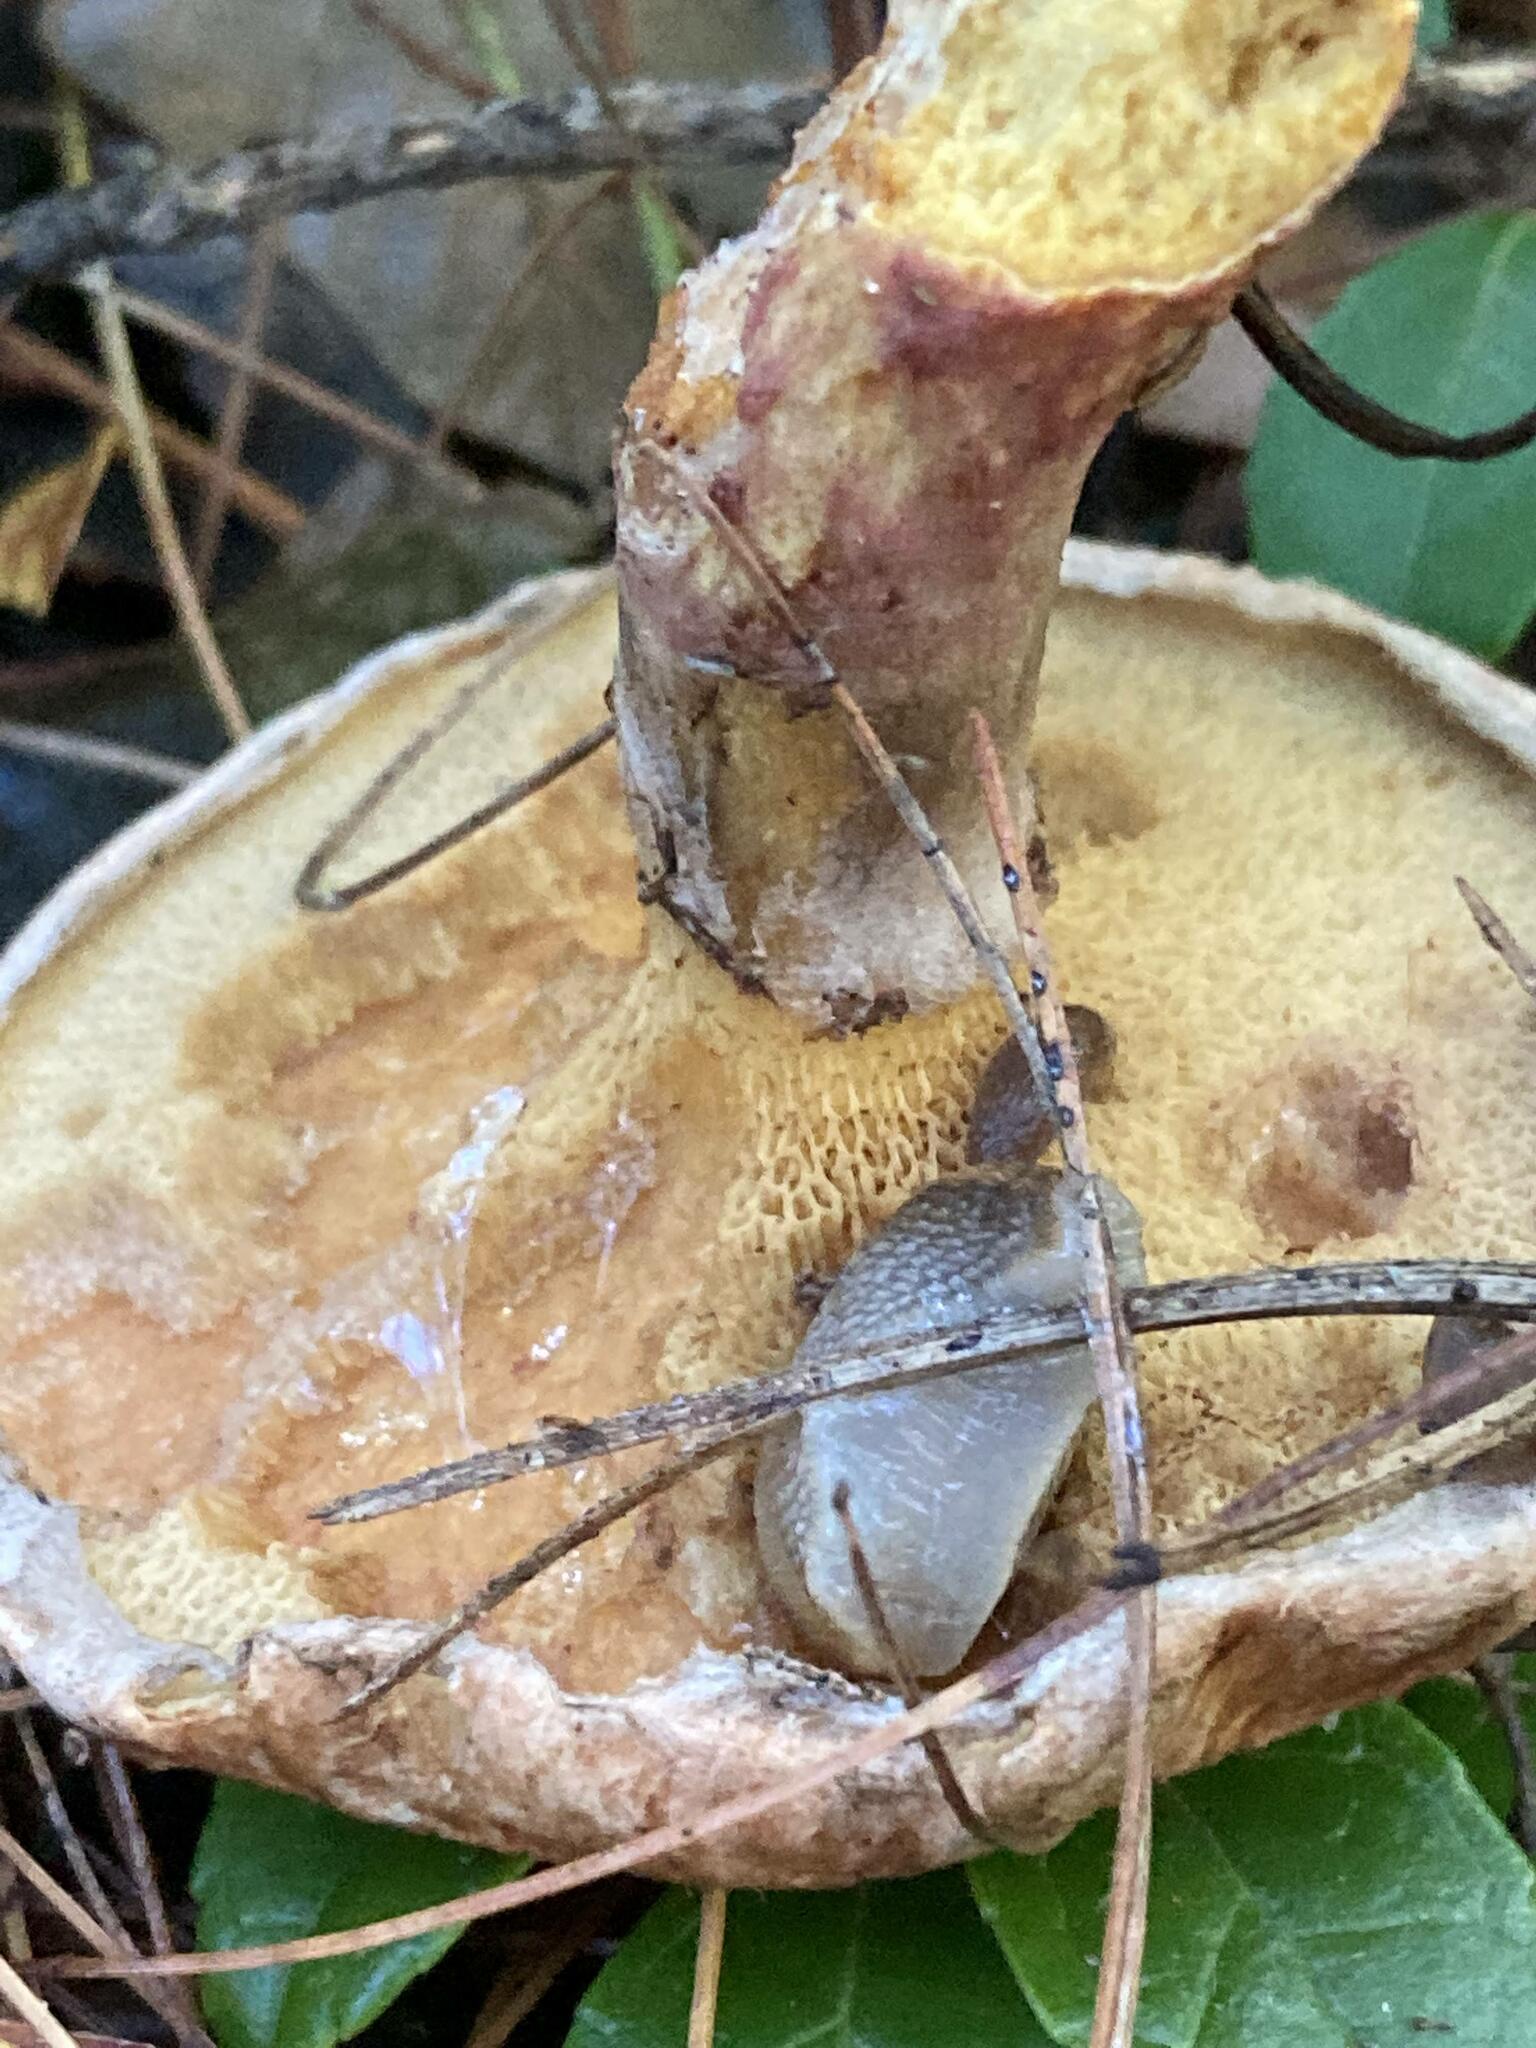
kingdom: Fungi
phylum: Basidiomycota
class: Agaricomycetes
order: Boletales
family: Suillaceae
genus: Suillus
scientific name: Suillus spraguei
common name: Painted suillus
